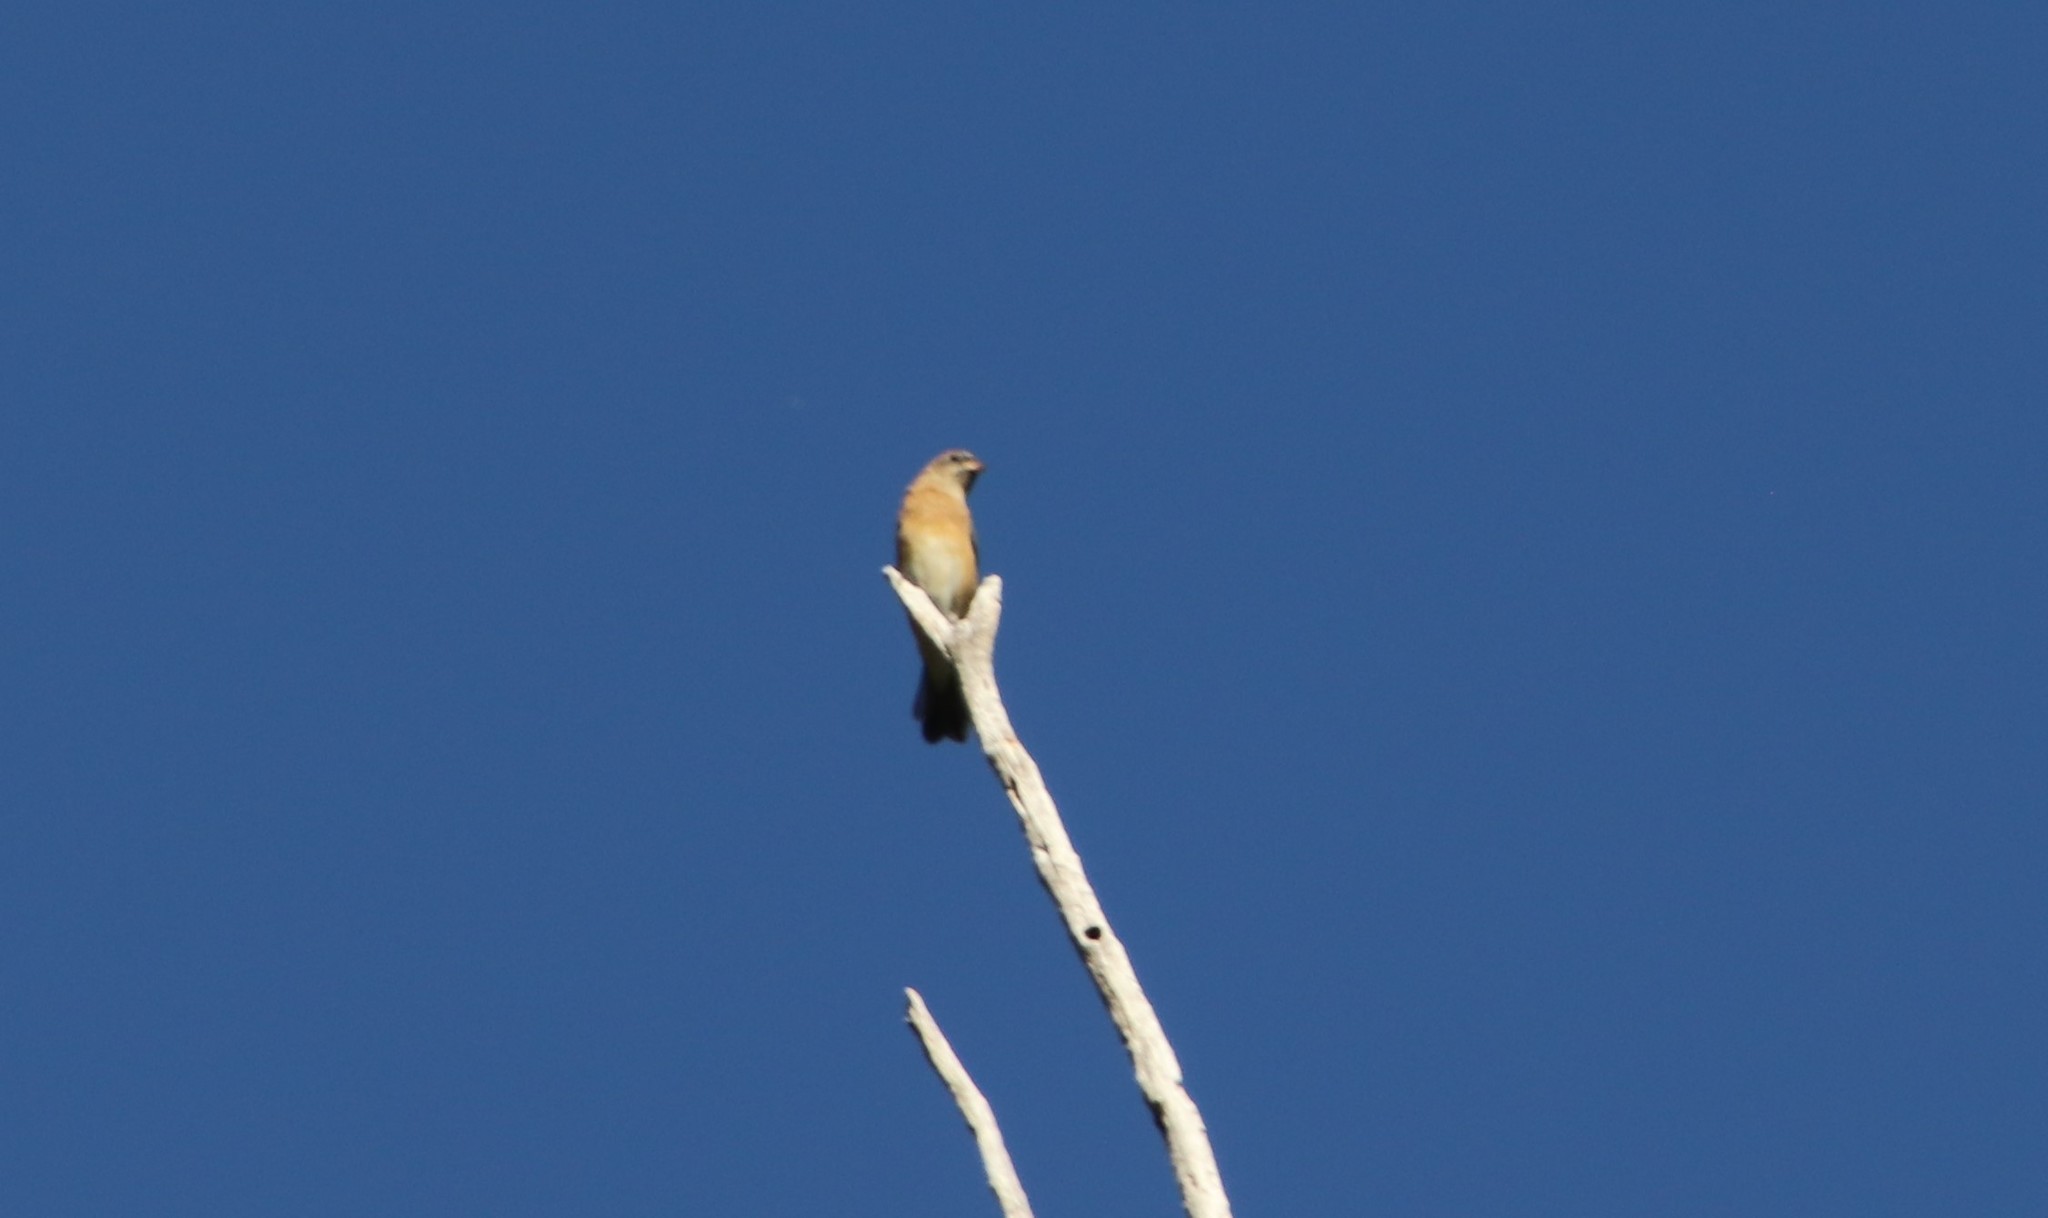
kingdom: Animalia
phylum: Chordata
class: Aves
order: Passeriformes
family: Cardinalidae
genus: Passerina
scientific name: Passerina amoena
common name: Lazuli bunting
